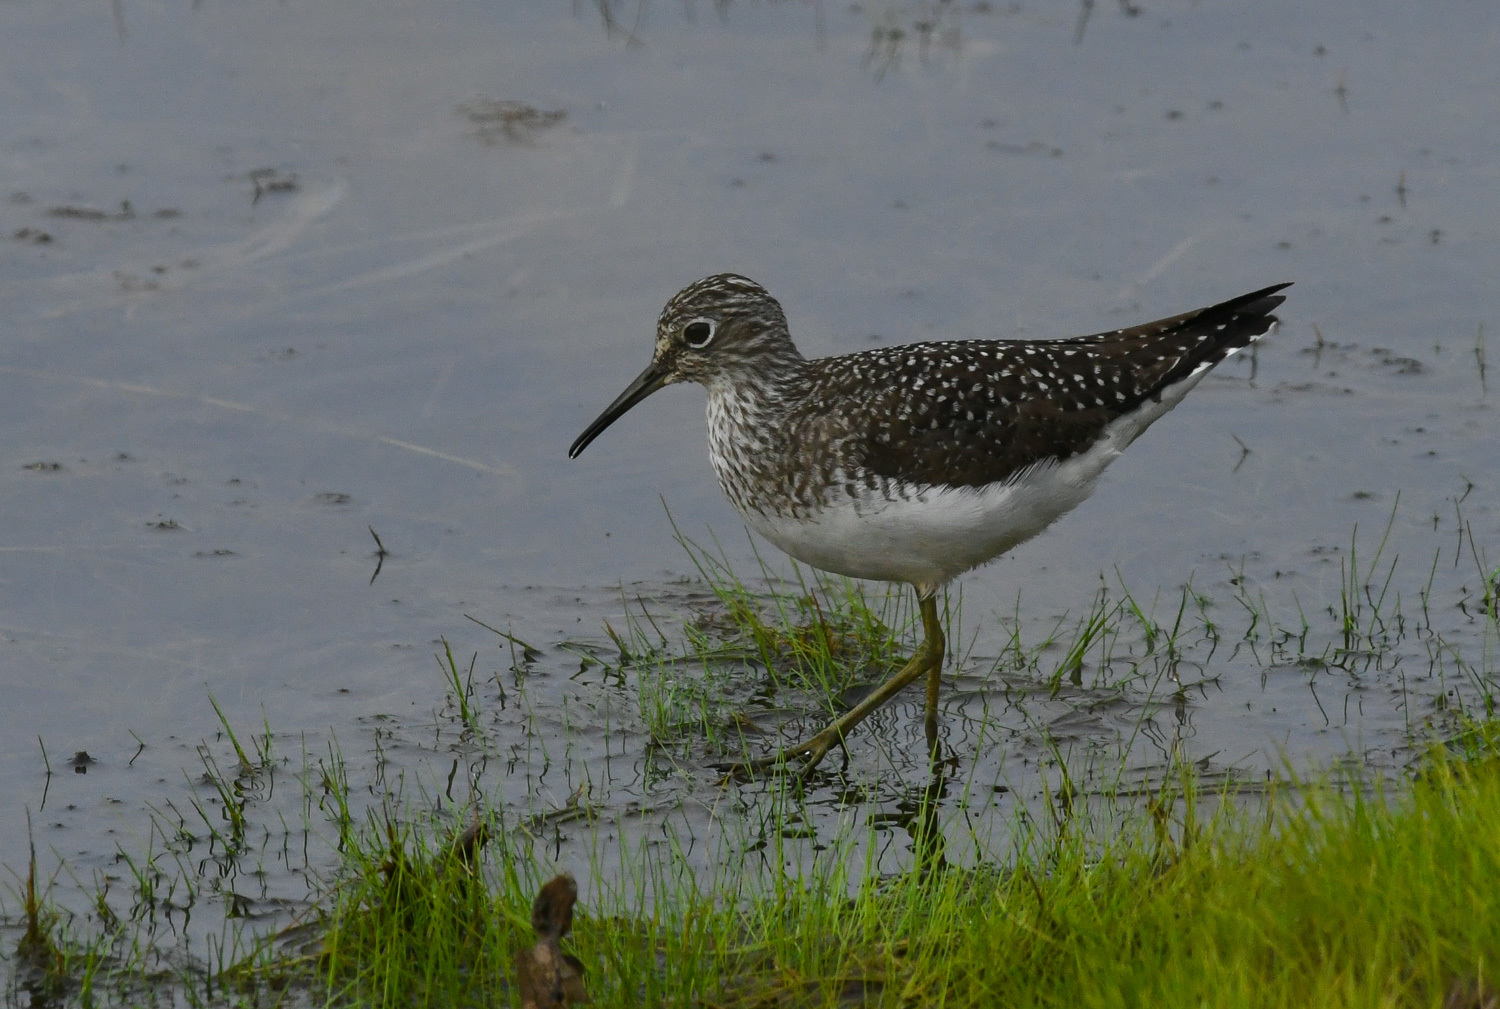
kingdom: Animalia
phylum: Chordata
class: Aves
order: Charadriiformes
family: Scolopacidae
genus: Tringa
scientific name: Tringa solitaria
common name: Solitary sandpiper
